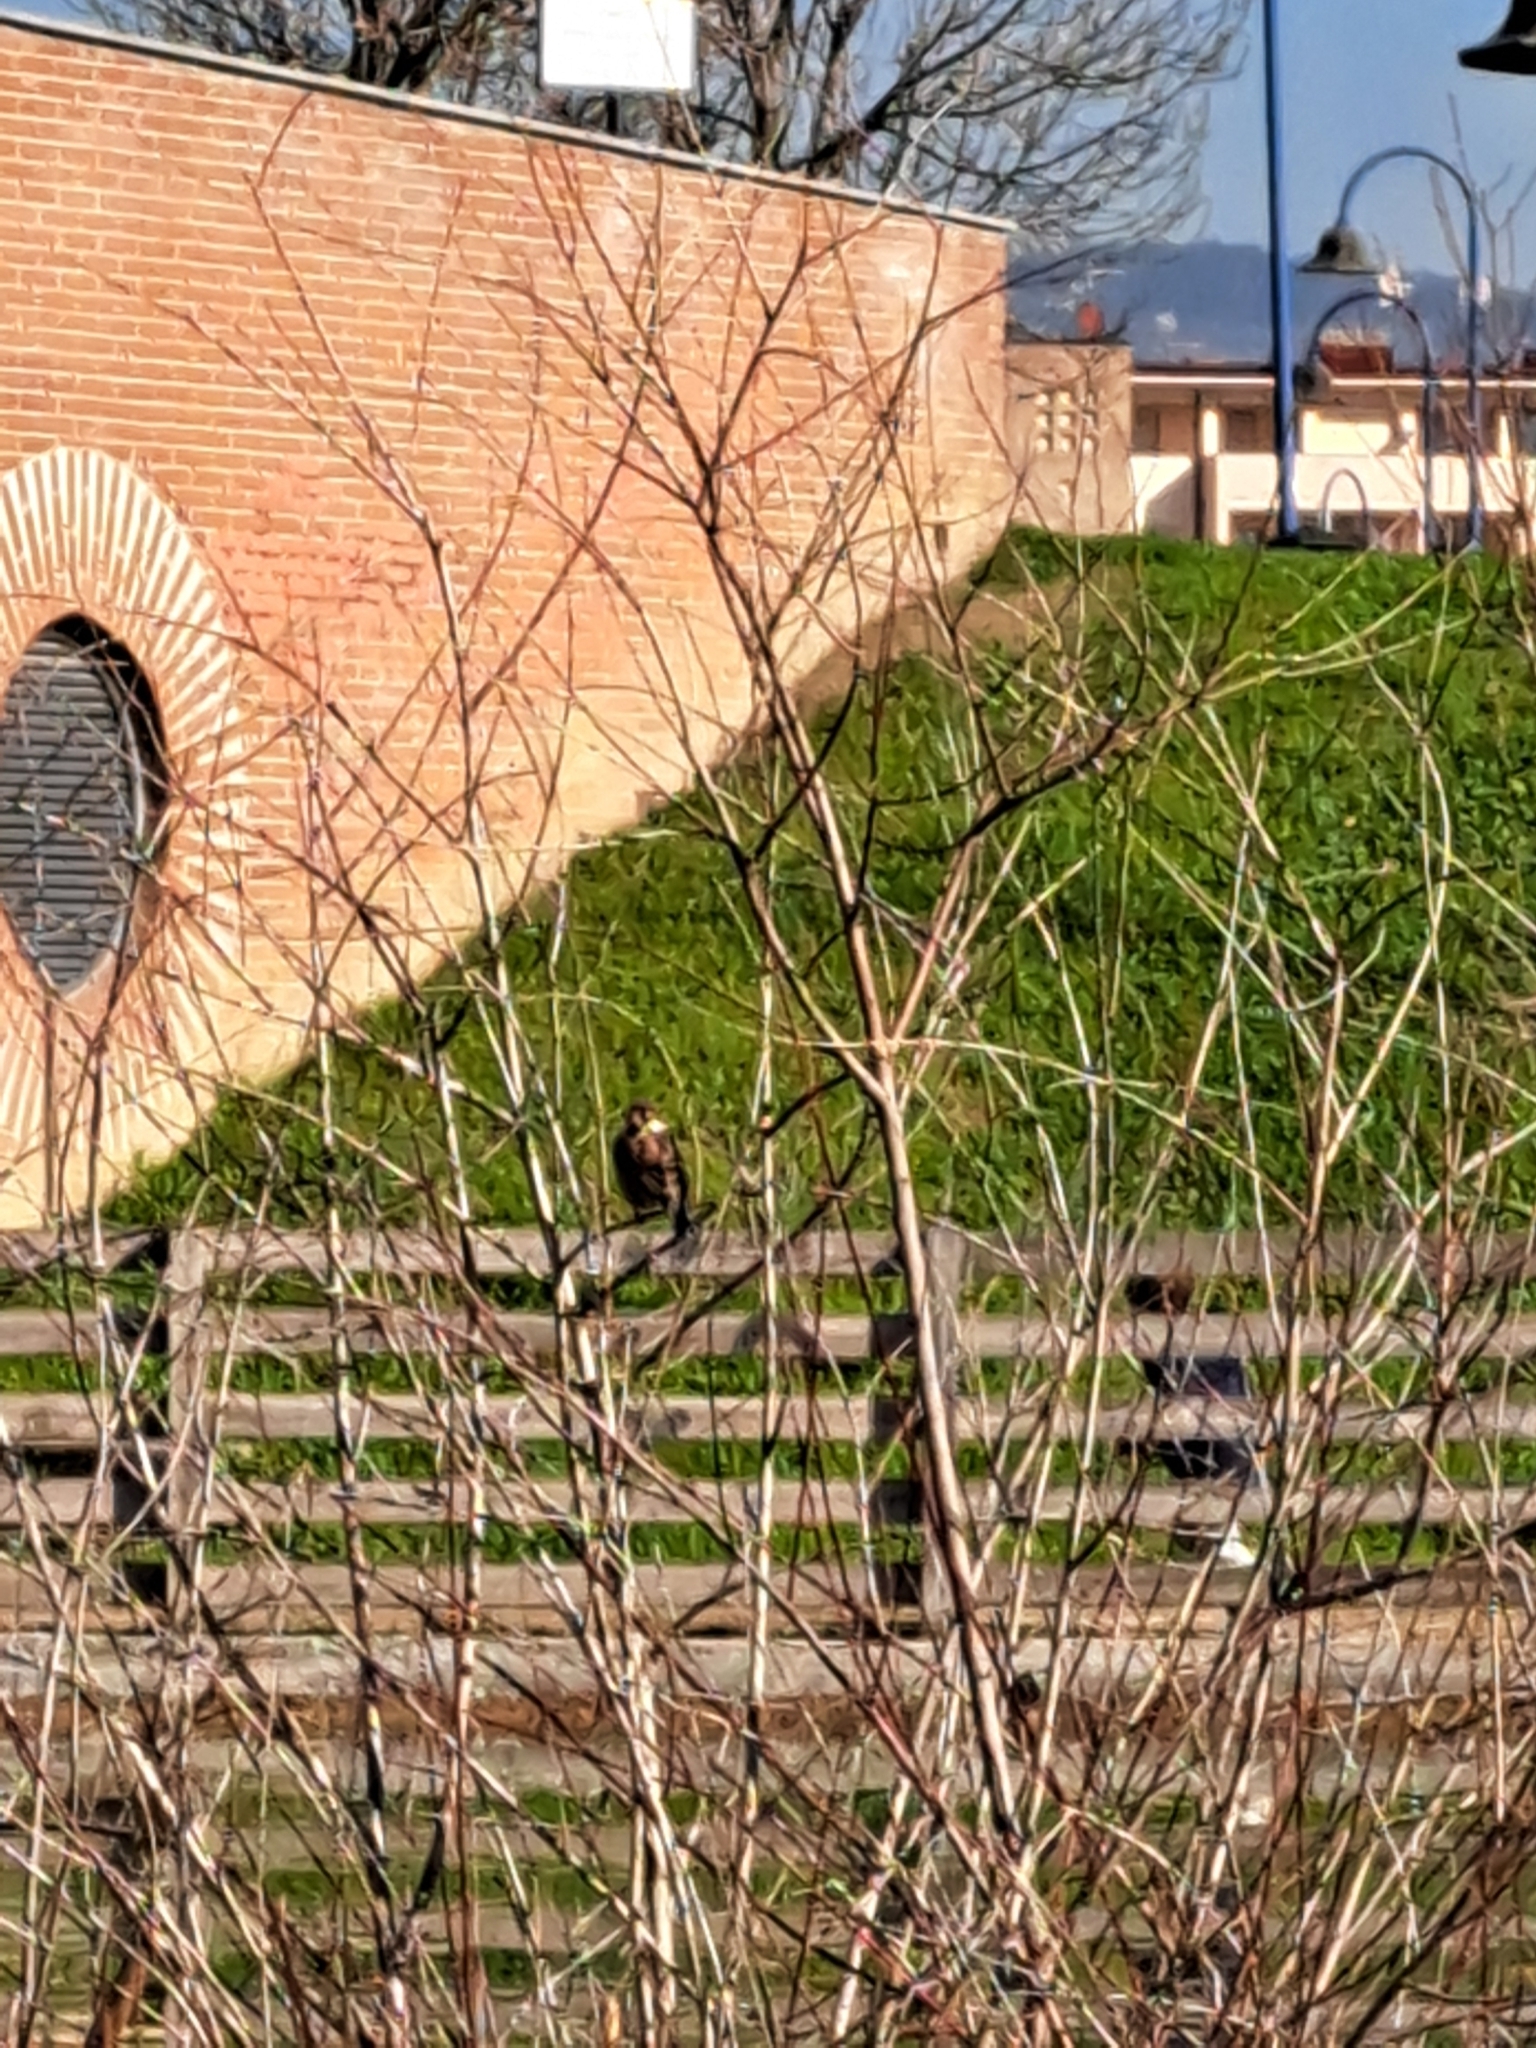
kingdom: Animalia
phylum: Chordata
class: Aves
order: Passeriformes
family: Passeridae
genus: Passer
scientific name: Passer italiae
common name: Italian sparrow
